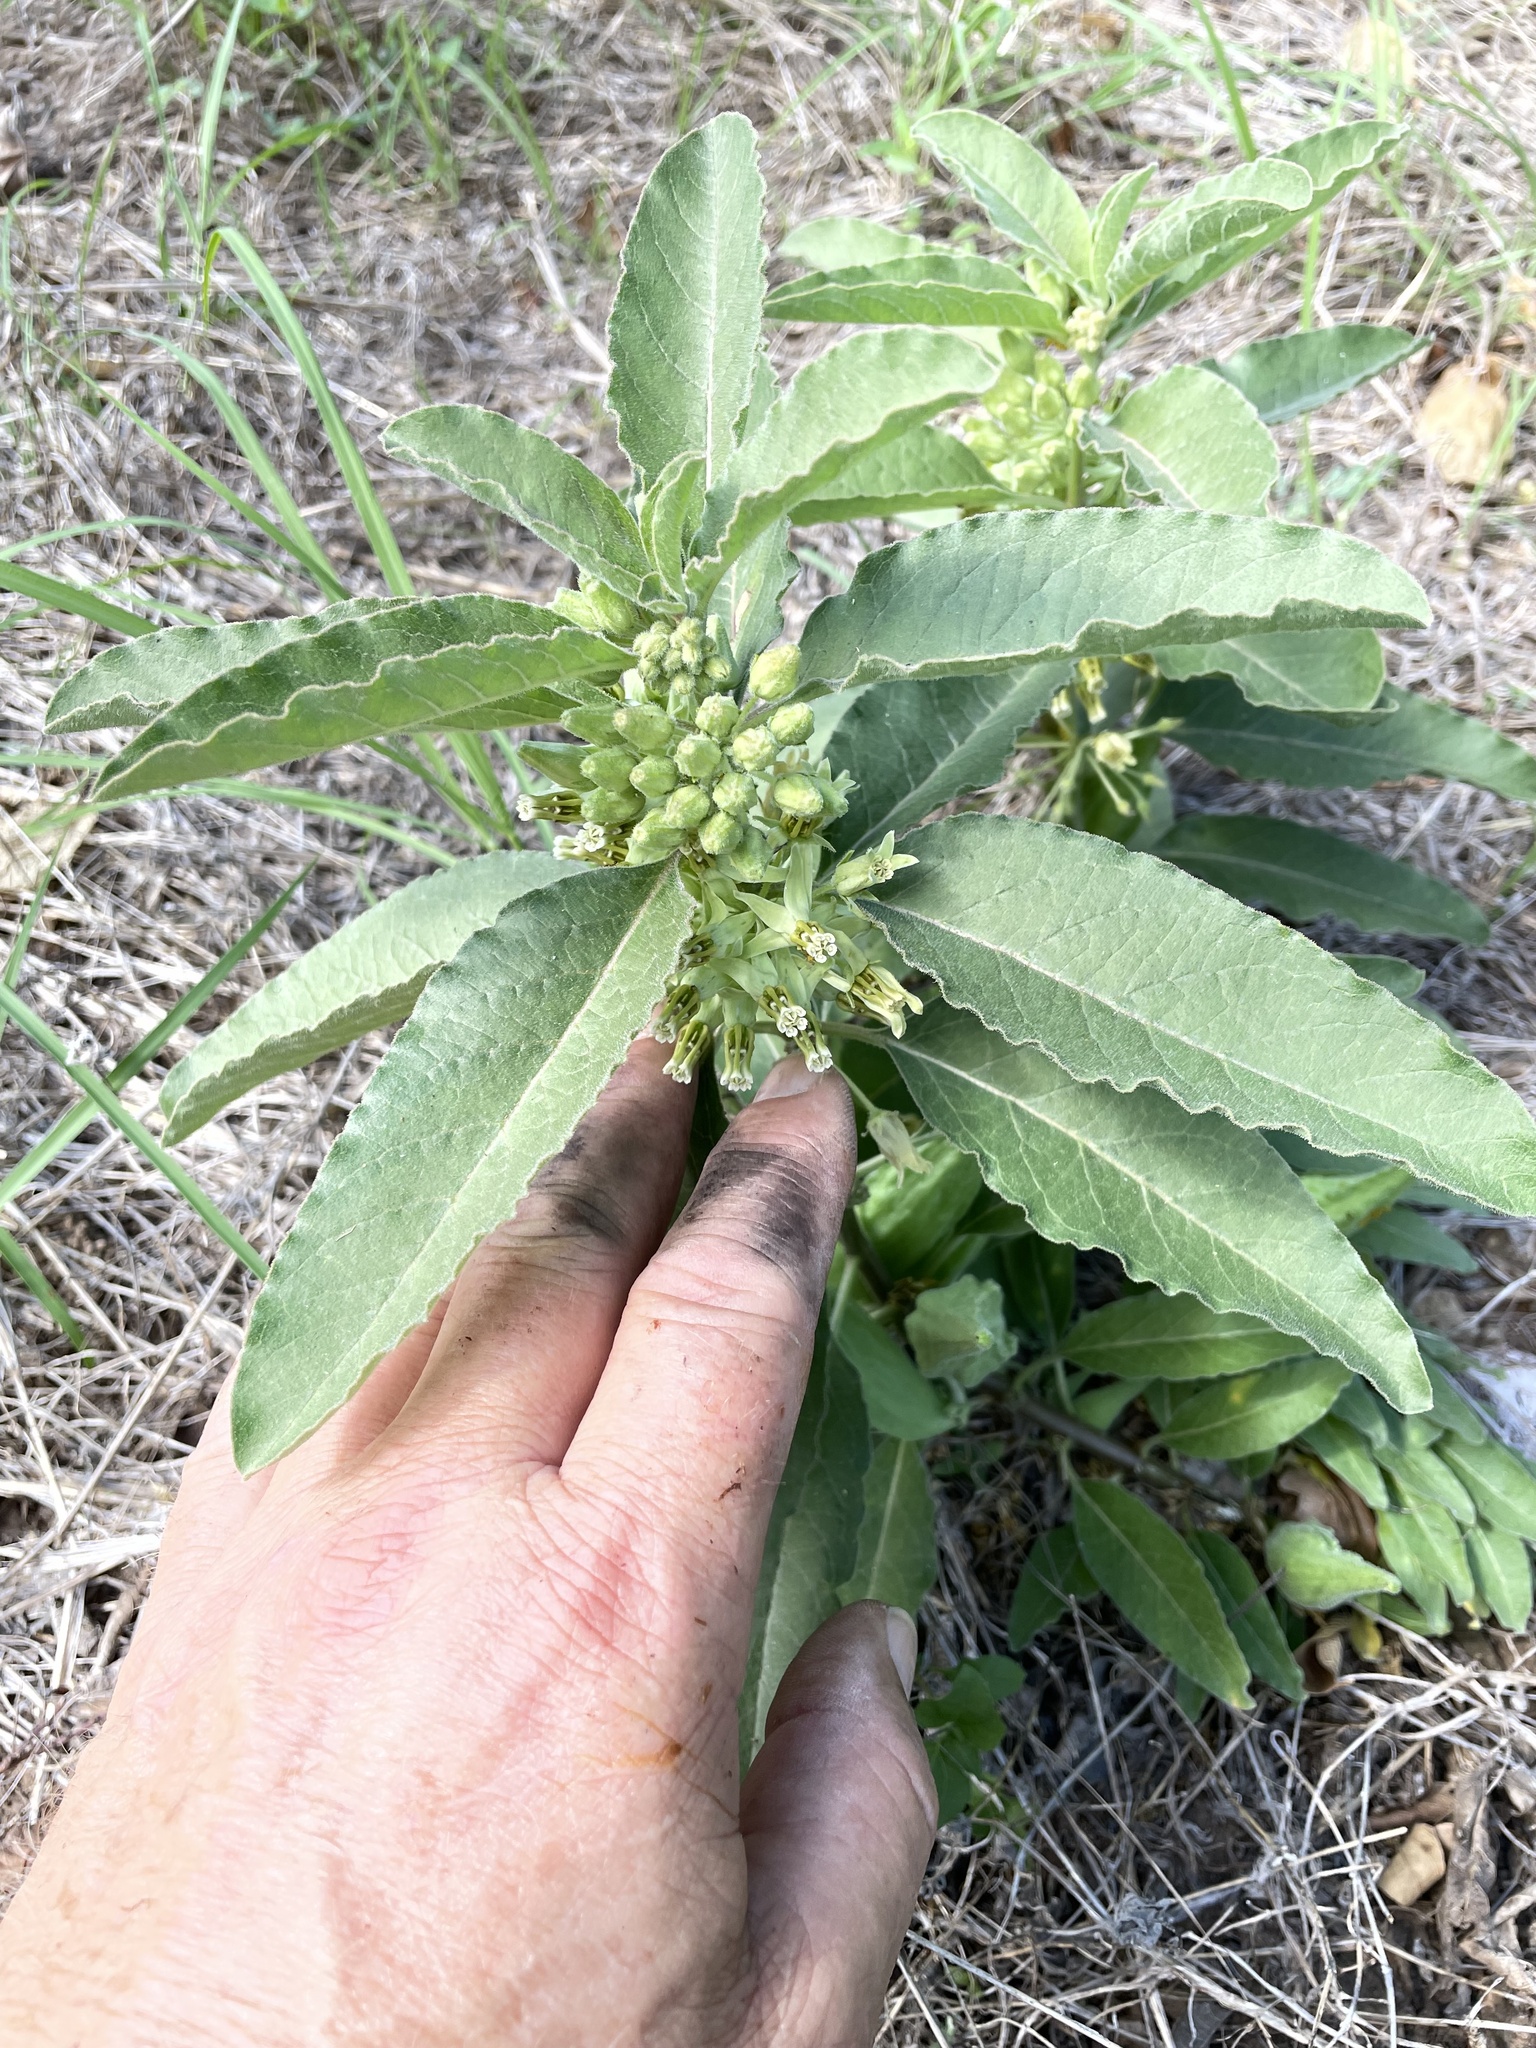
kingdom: Plantae
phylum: Tracheophyta
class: Magnoliopsida
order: Gentianales
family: Apocynaceae
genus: Asclepias
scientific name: Asclepias oenotheroides
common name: Zizotes milkweed
